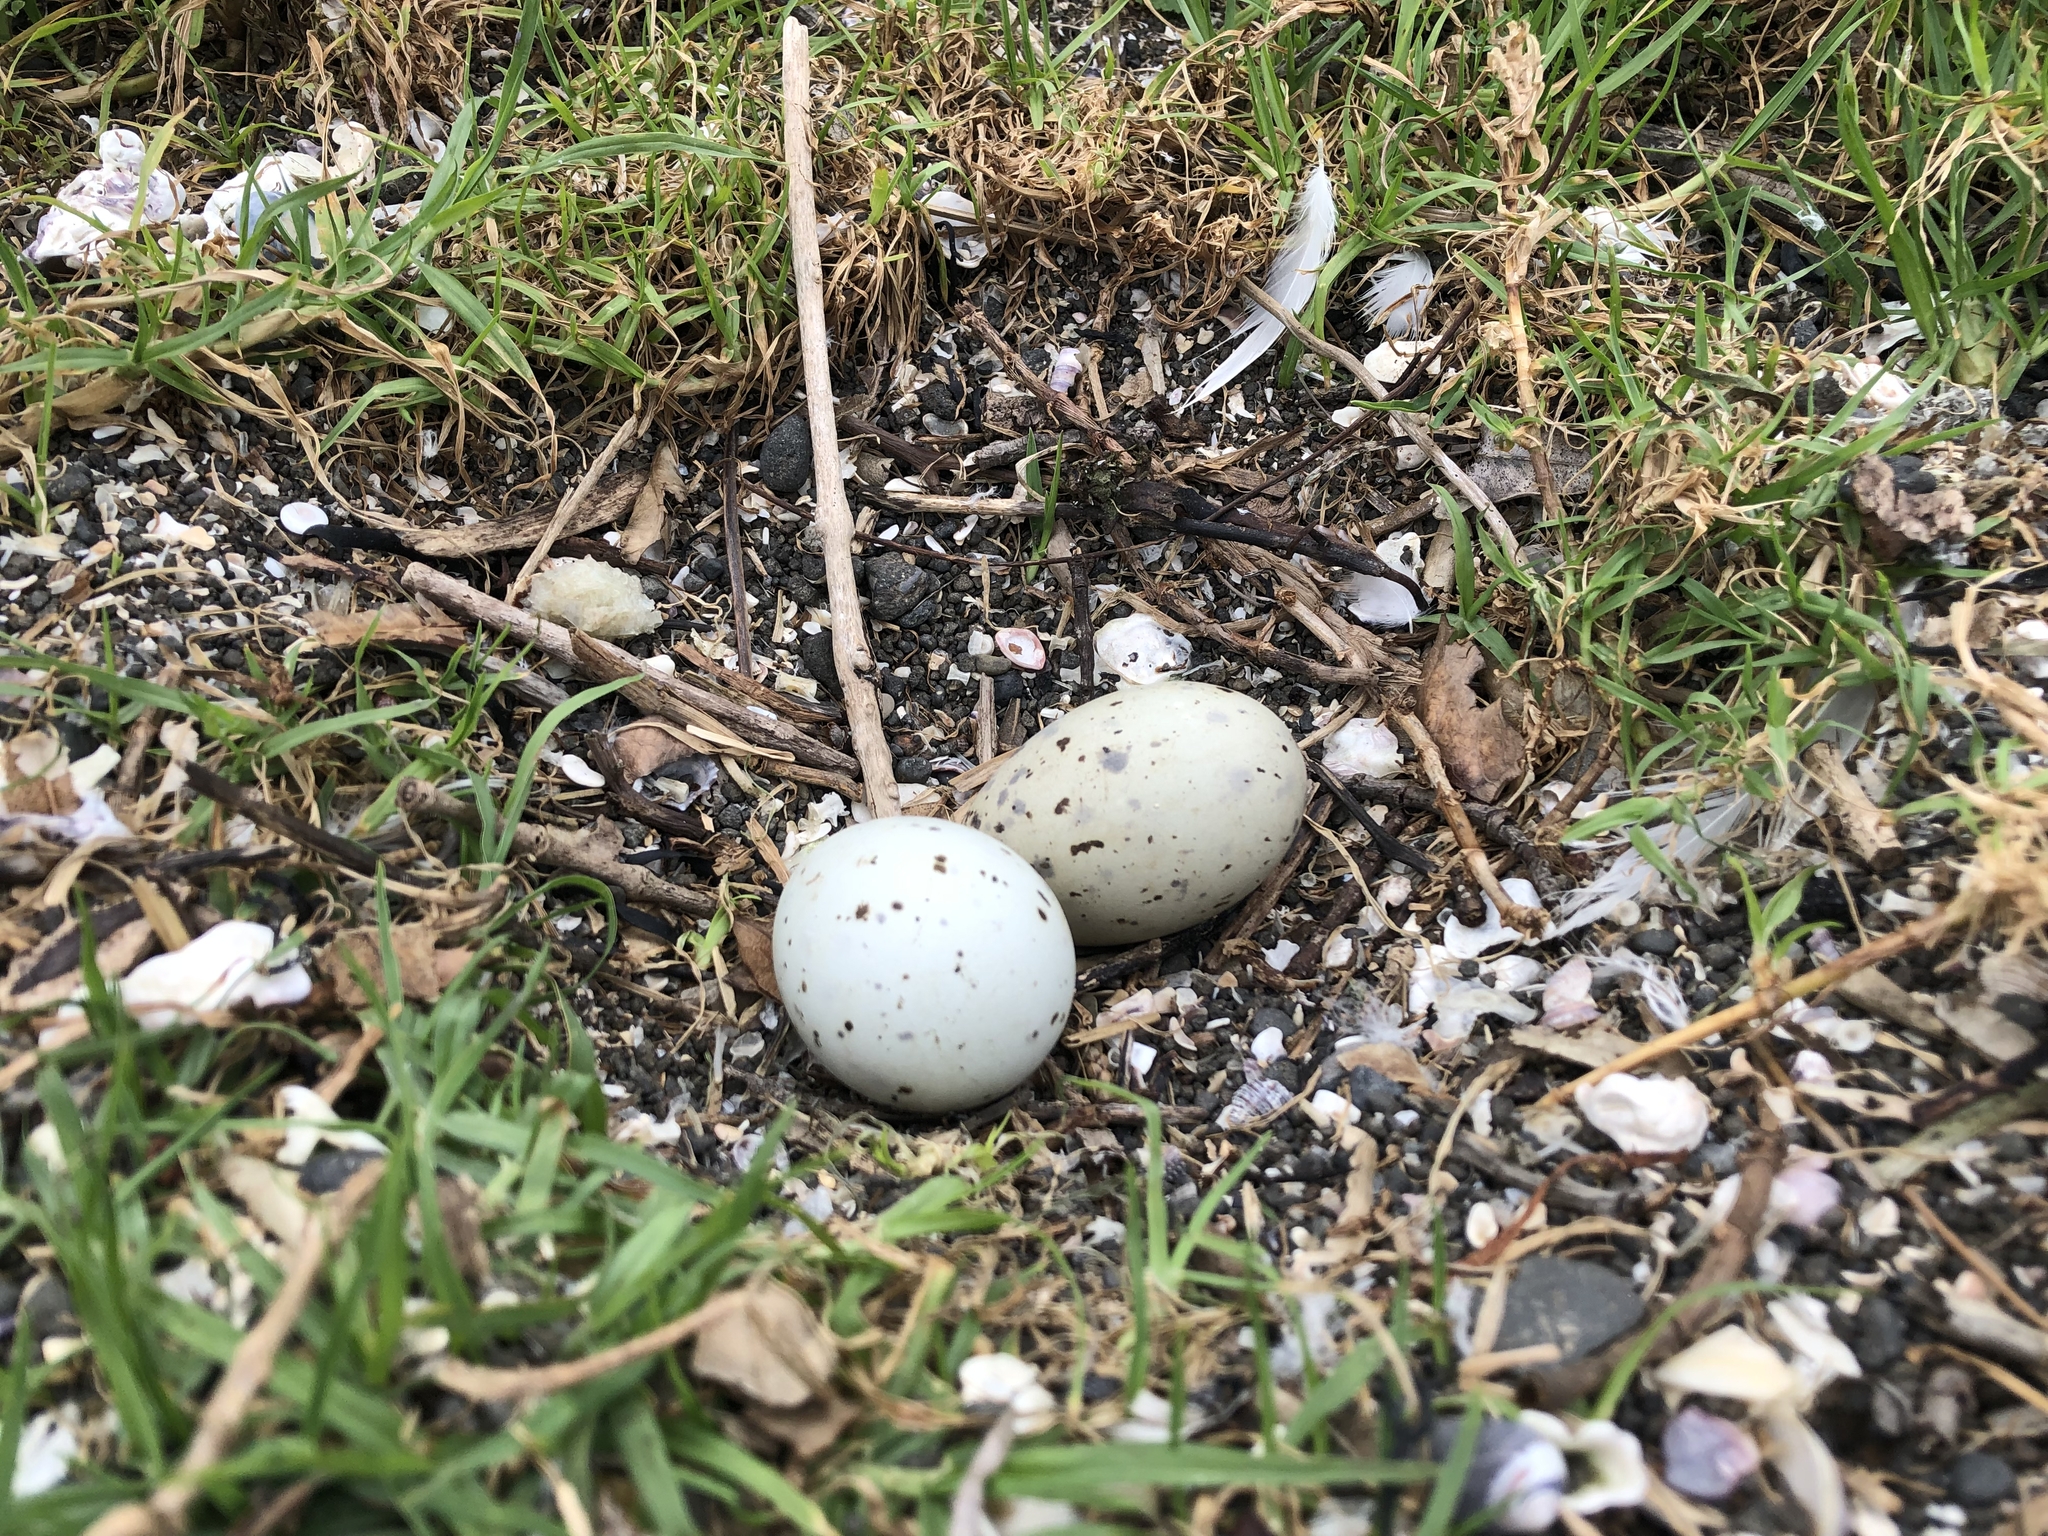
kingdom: Animalia
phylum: Chordata
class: Aves
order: Charadriiformes
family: Laridae
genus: Hydroprogne
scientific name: Hydroprogne caspia
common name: Caspian tern
